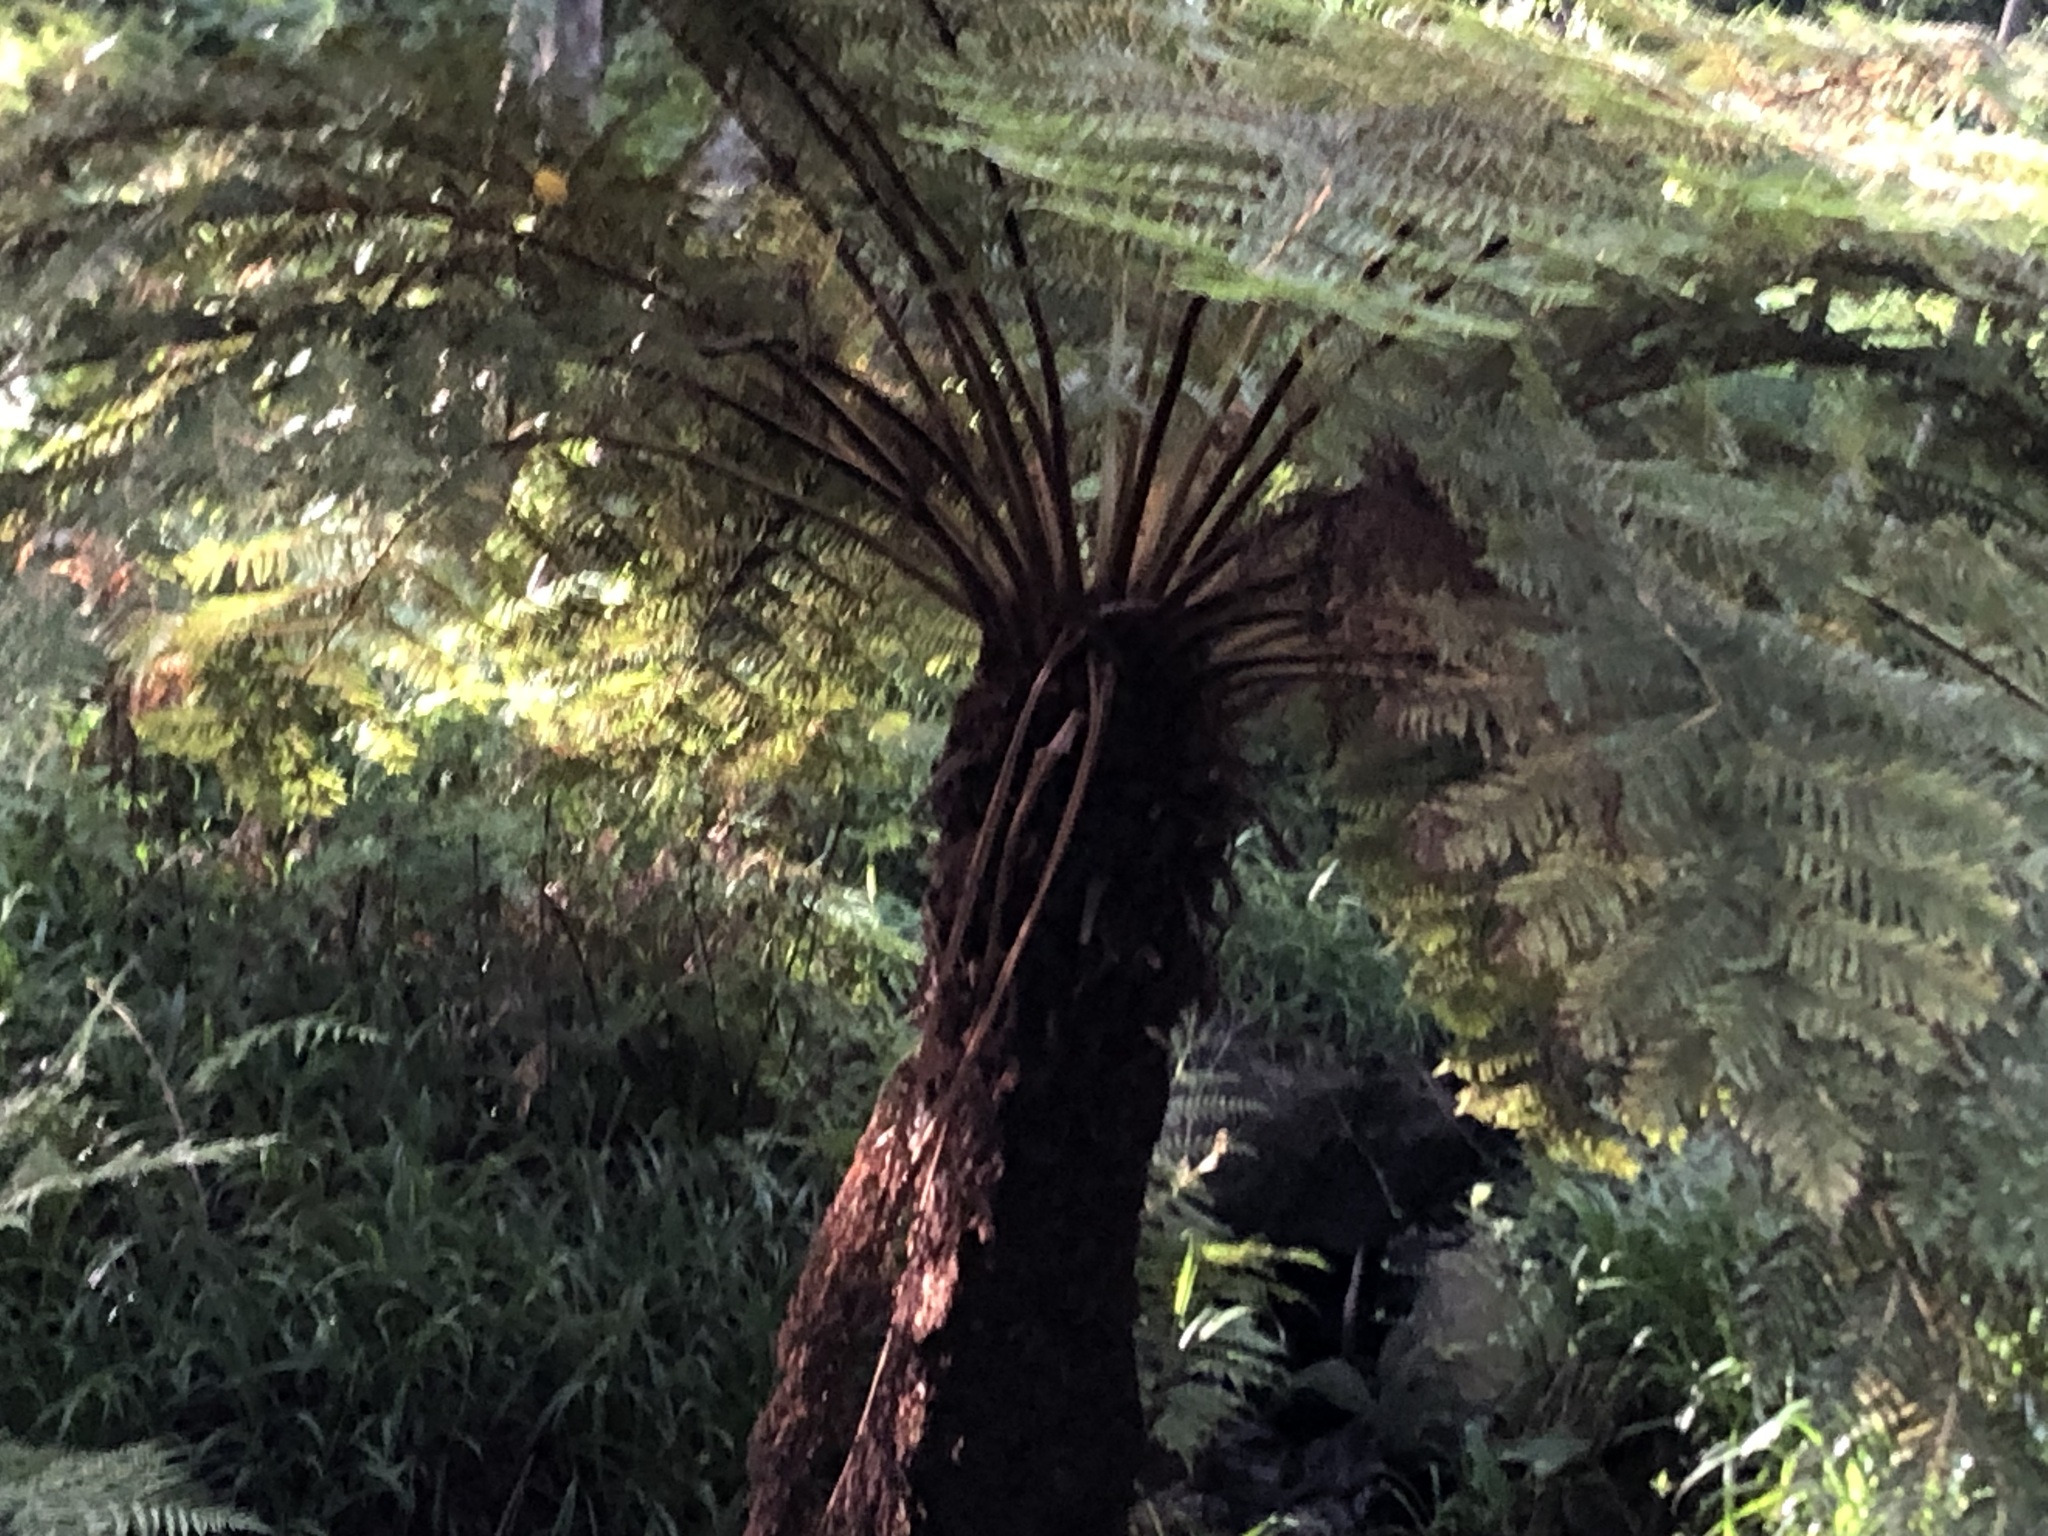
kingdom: Plantae
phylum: Tracheophyta
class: Polypodiopsida
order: Cyatheales
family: Cyatheaceae
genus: Gymnosphaera
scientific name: Gymnosphaera capensis
